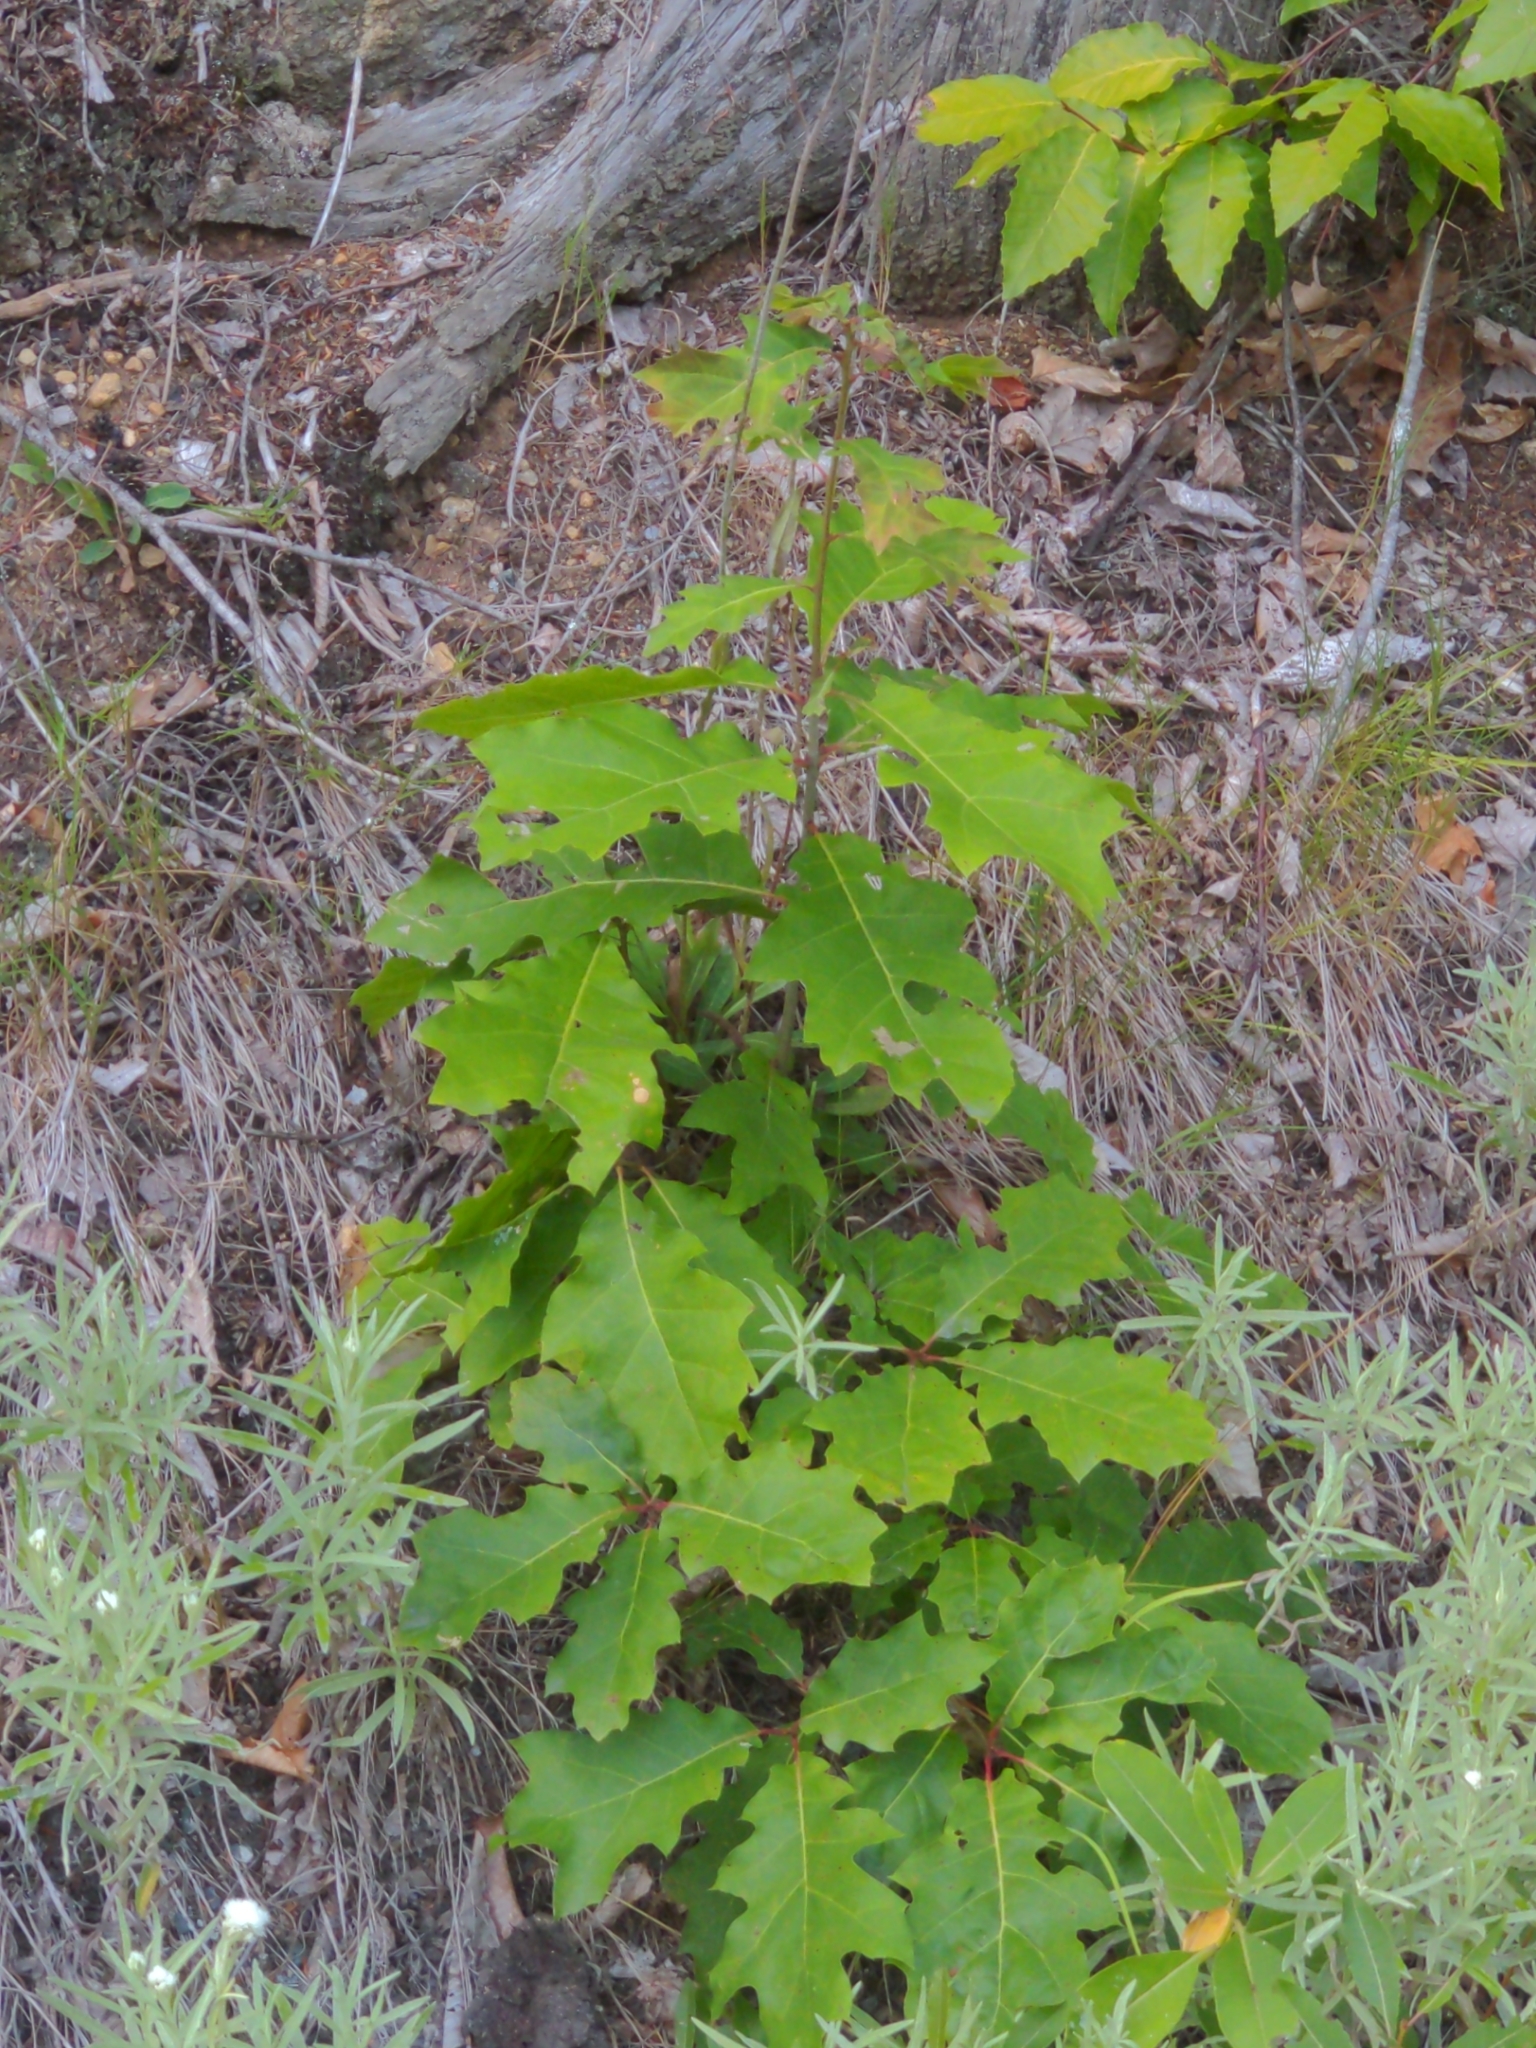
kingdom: Plantae
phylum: Tracheophyta
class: Magnoliopsida
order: Fagales
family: Fagaceae
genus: Quercus
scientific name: Quercus rubra
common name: Red oak
